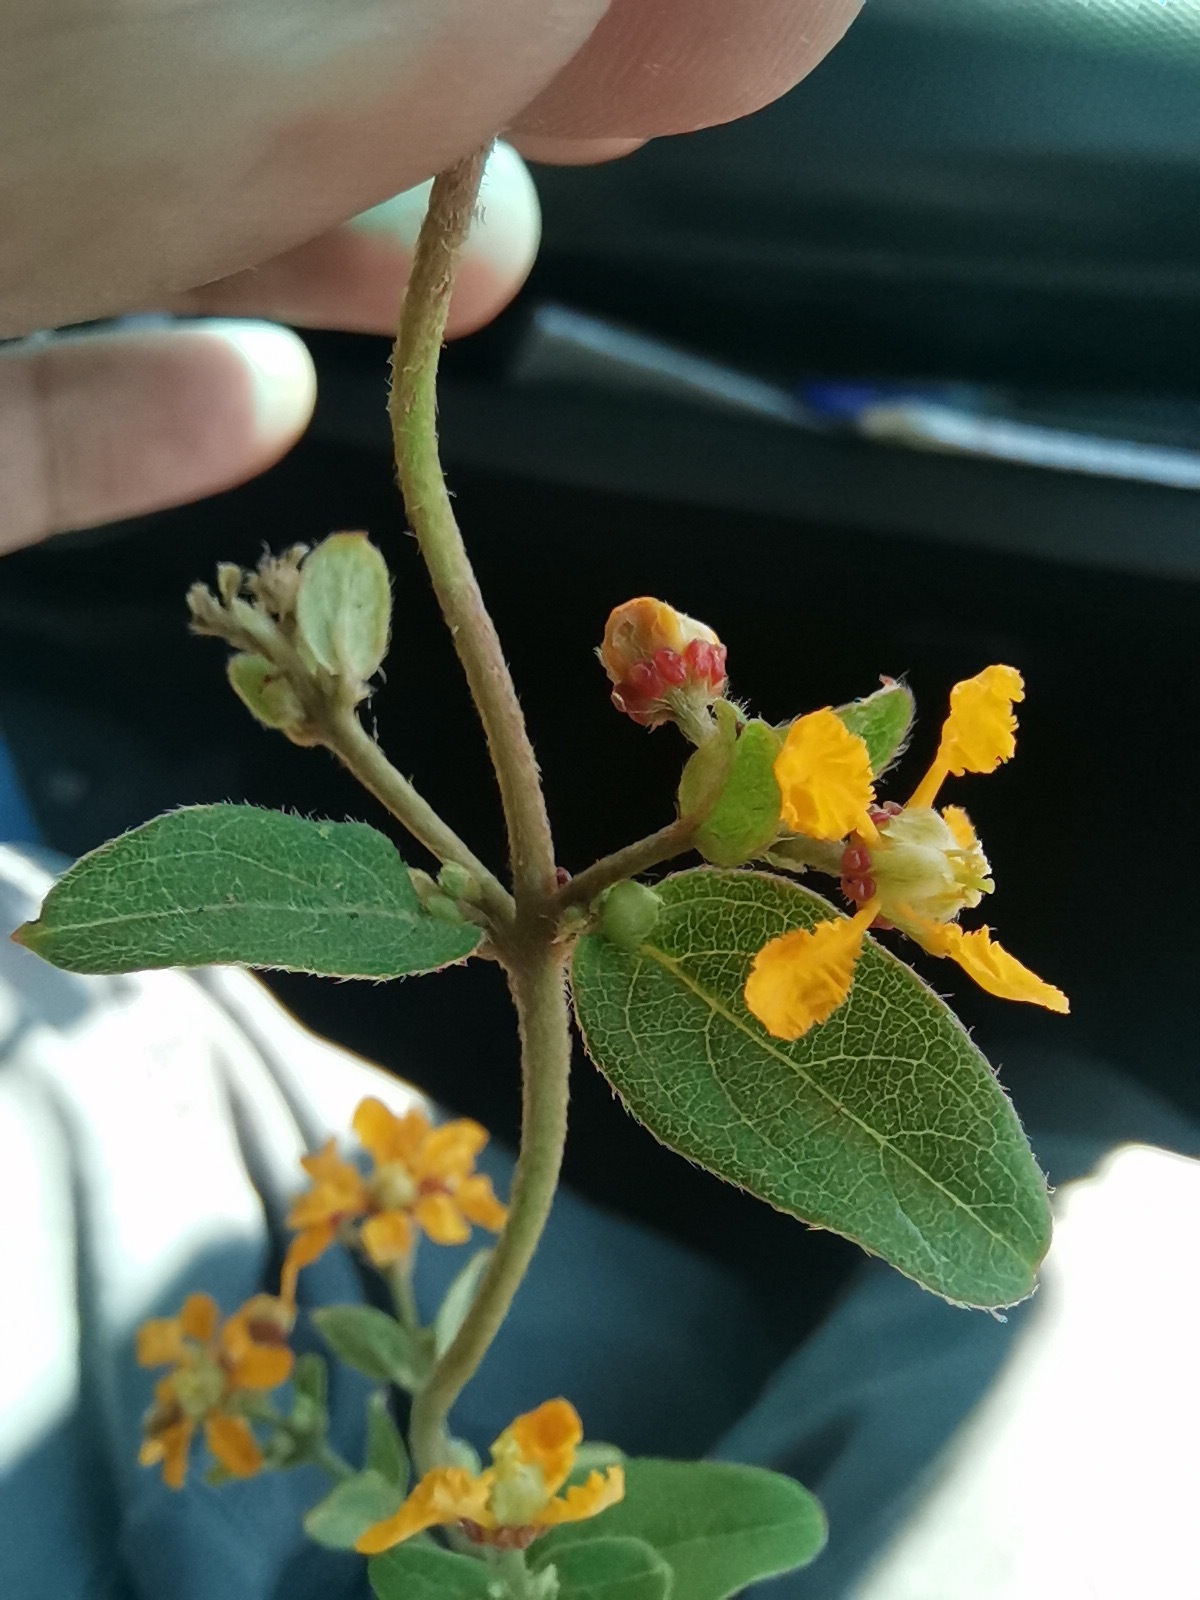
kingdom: Plantae
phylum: Tracheophyta
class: Magnoliopsida
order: Malpighiales
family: Malpighiaceae
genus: Gaudichaudia
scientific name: Gaudichaudia cynanchoides
